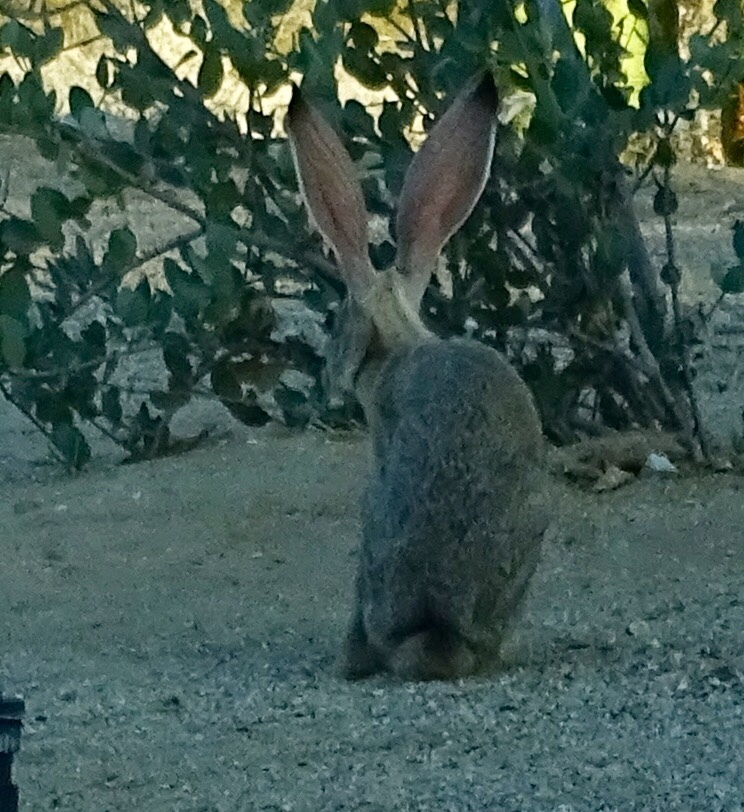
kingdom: Animalia
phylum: Chordata
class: Mammalia
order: Lagomorpha
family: Leporidae
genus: Lepus
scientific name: Lepus californicus
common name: Black-tailed jackrabbit
